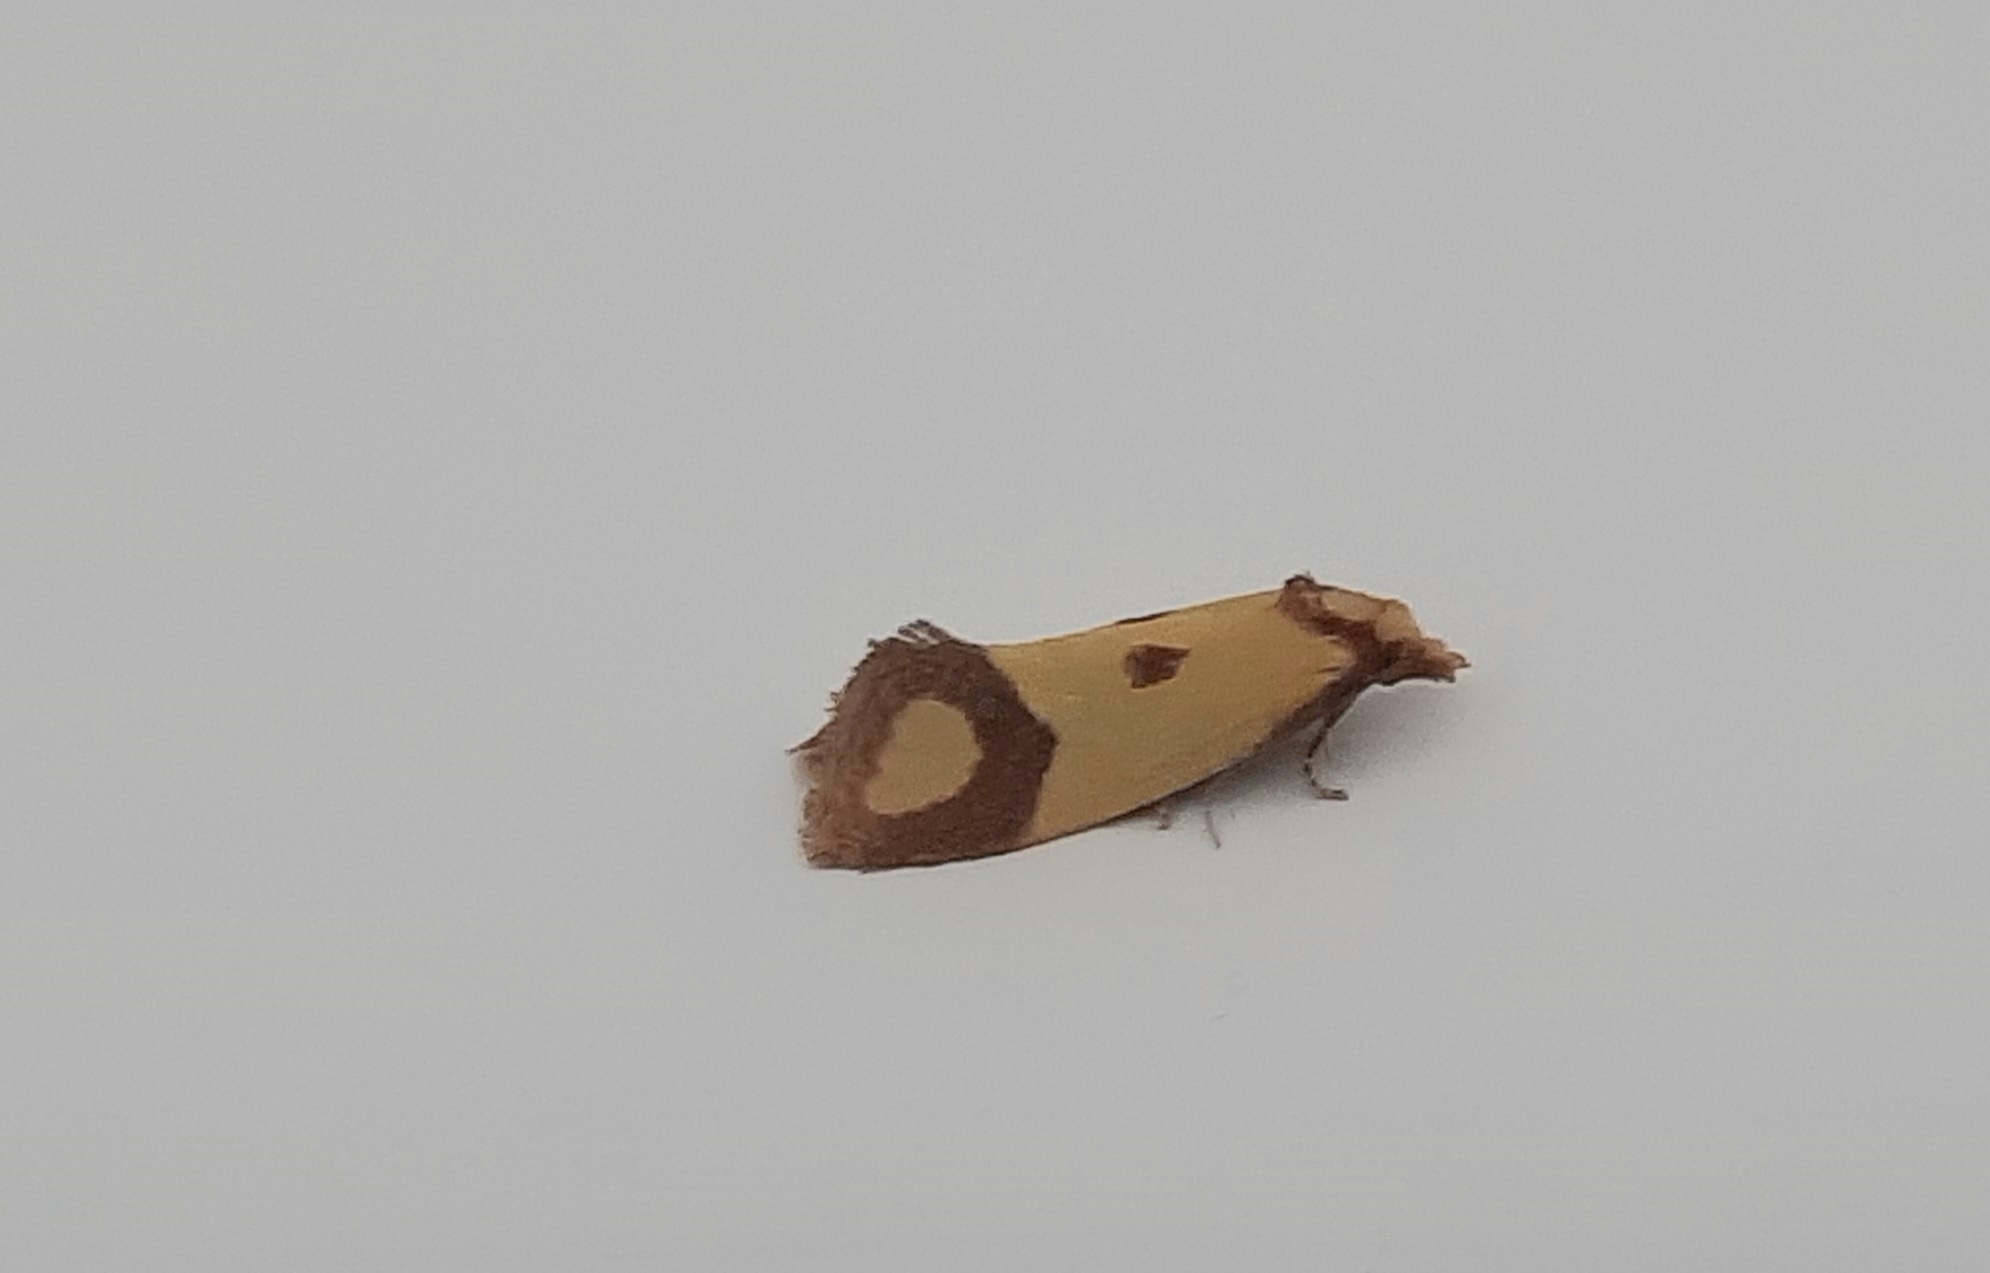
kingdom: Animalia
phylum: Arthropoda
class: Insecta
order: Lepidoptera
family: Tortricidae
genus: Agapeta
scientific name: Agapeta zoegana
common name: Sulfur knapweed root moth
